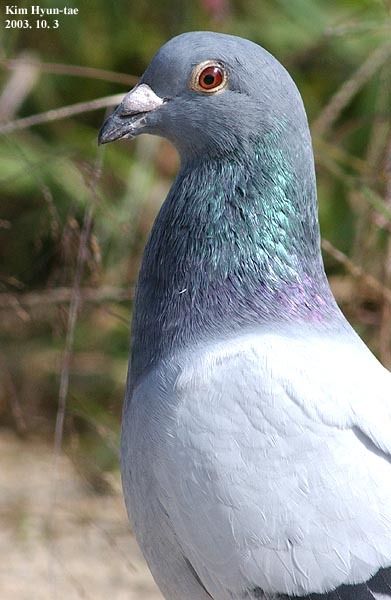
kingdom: Animalia
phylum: Chordata
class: Aves
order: Columbiformes
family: Columbidae
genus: Columba
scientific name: Columba livia
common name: Rock pigeon
